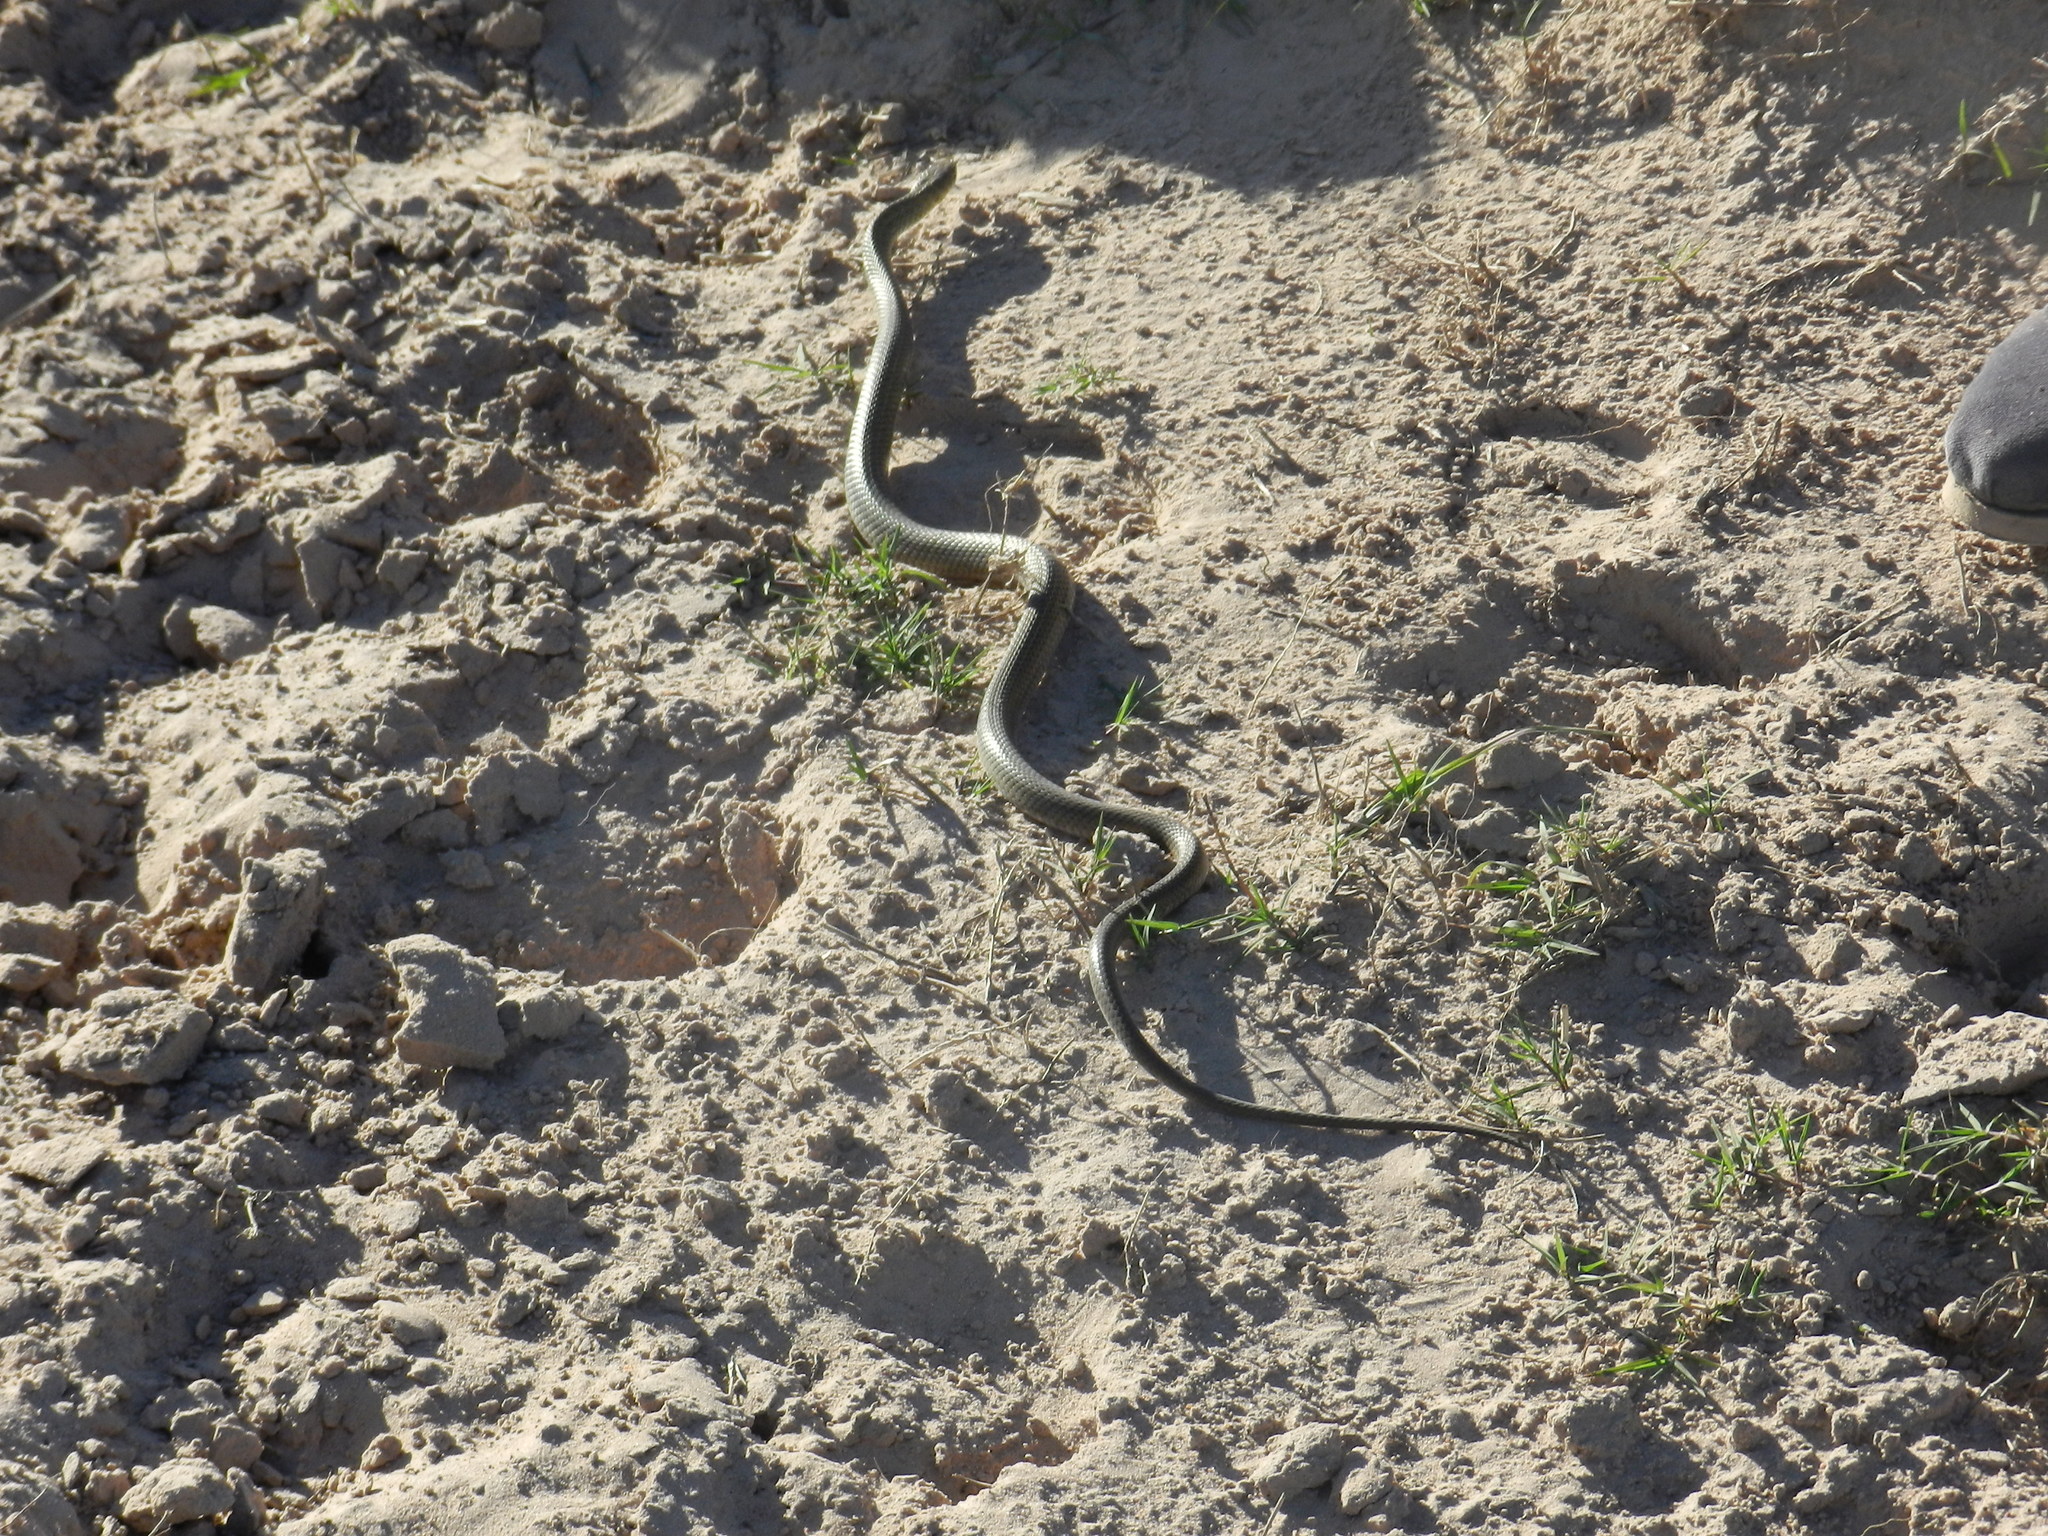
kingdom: Animalia
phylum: Chordata
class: Squamata
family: Colubridae
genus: Erythrolamprus
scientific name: Erythrolamprus semiaureus
